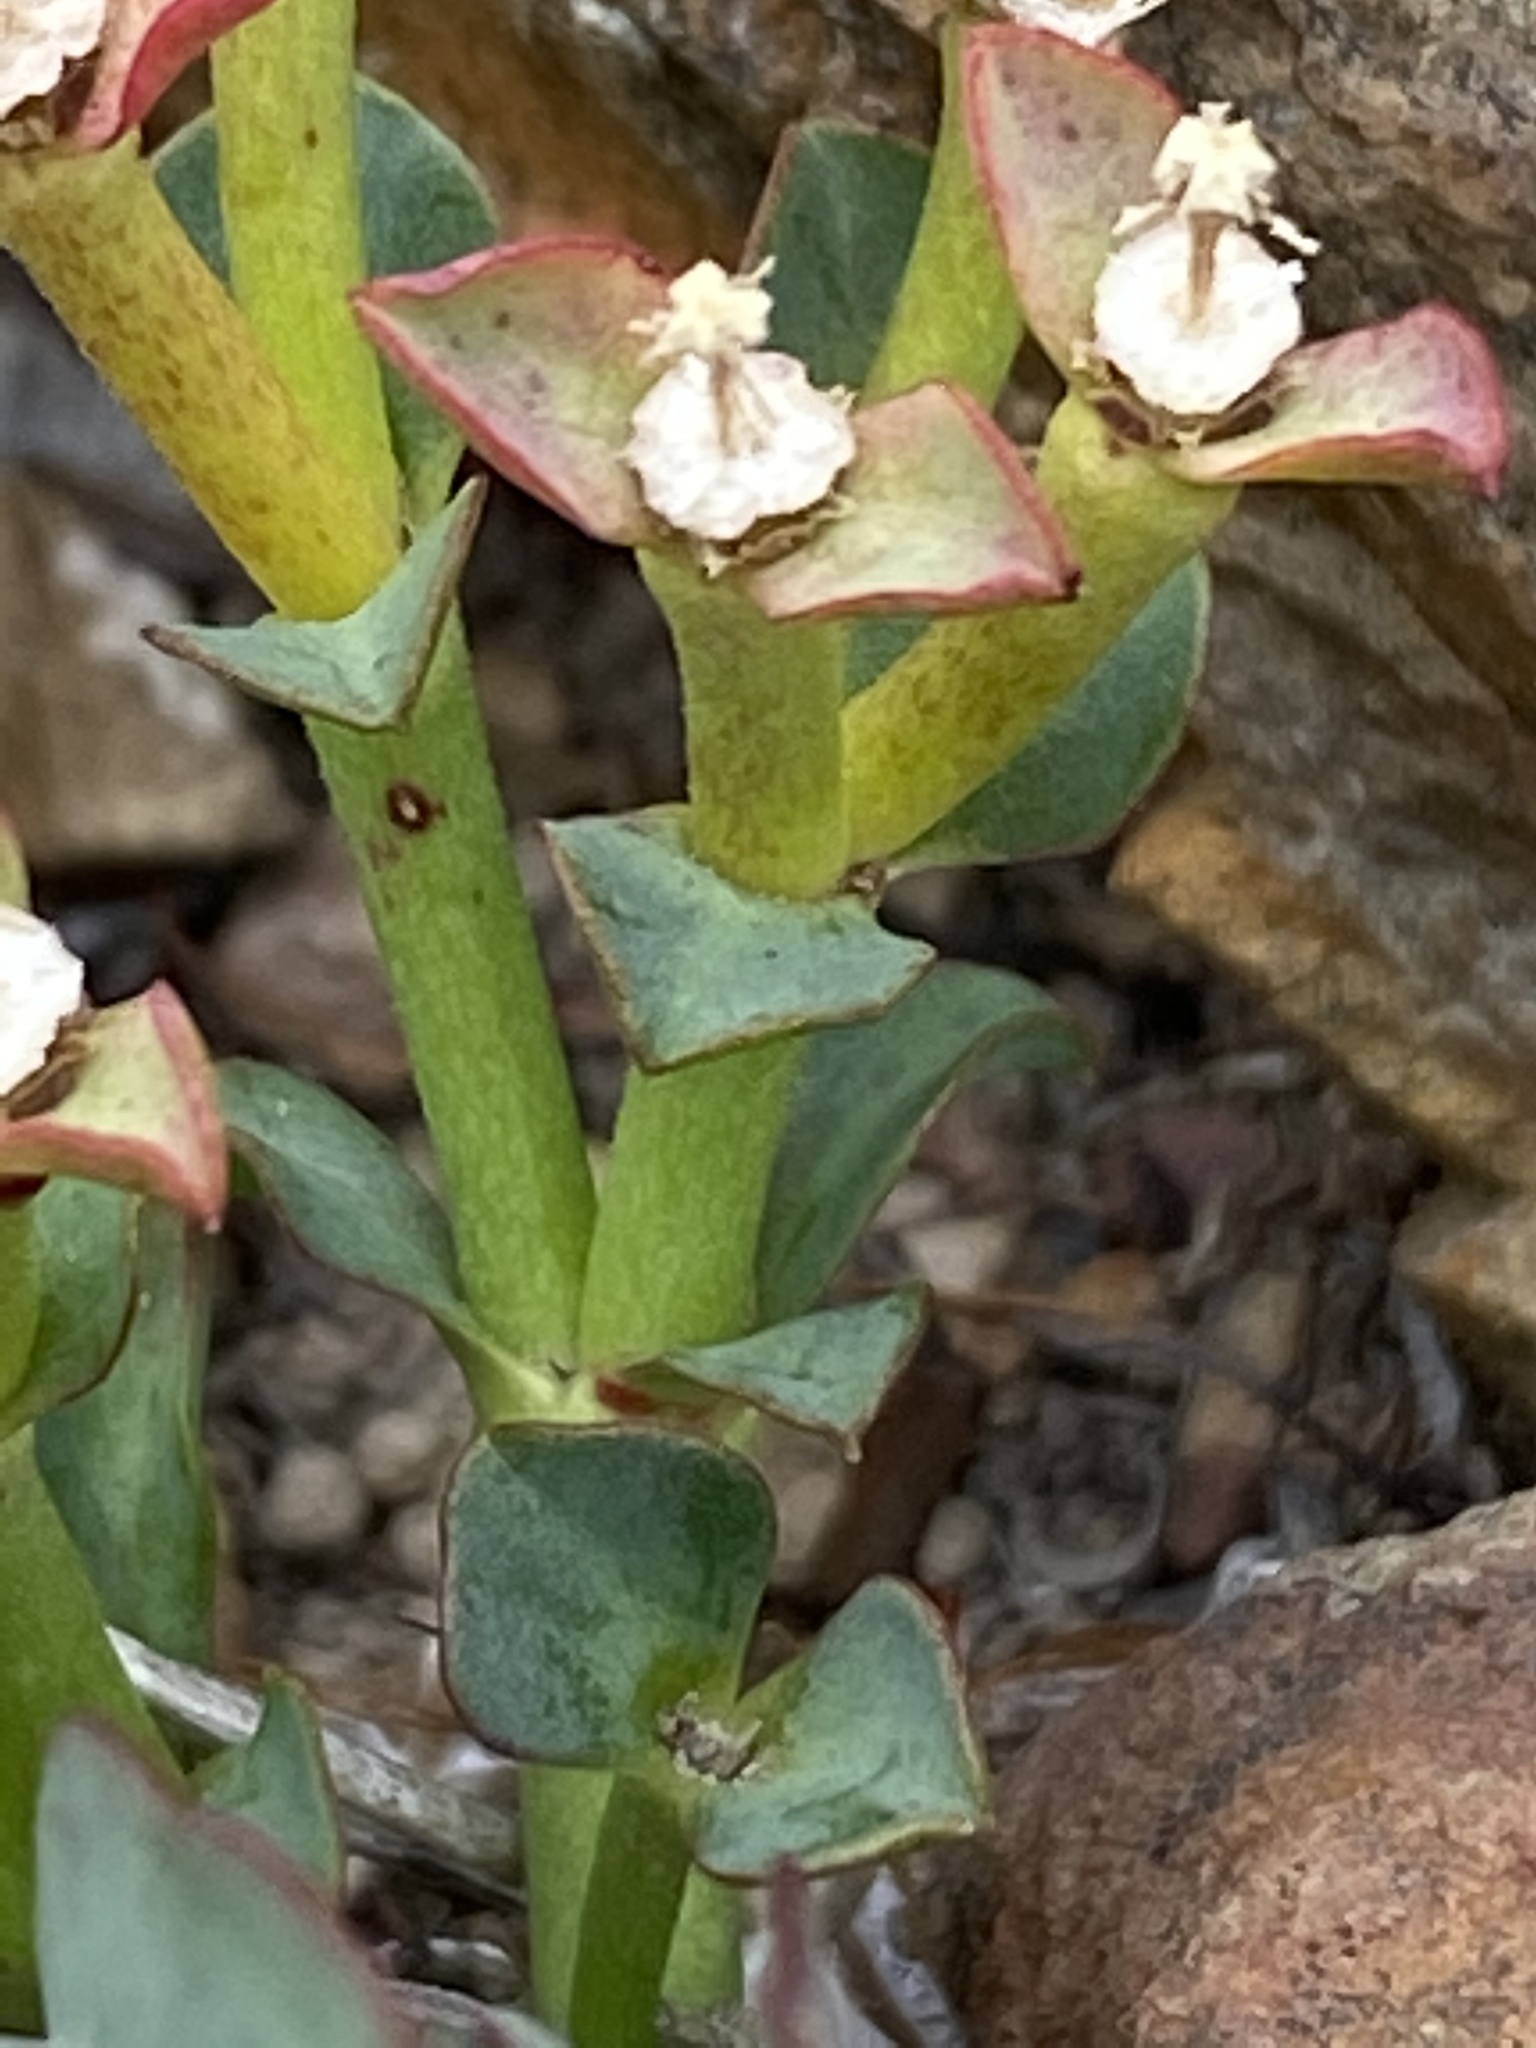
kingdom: Plantae
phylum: Tracheophyta
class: Magnoliopsida
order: Malpighiales
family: Euphorbiaceae
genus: Euphorbia
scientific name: Euphorbia tuberosa
